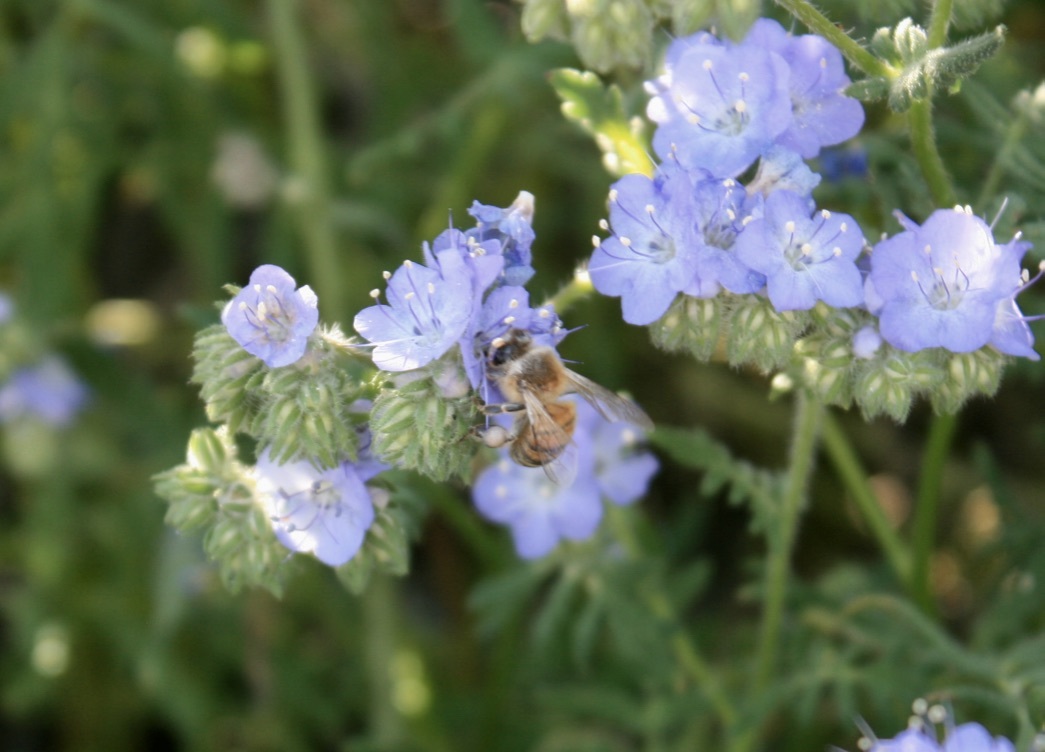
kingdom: Animalia
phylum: Arthropoda
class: Insecta
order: Hymenoptera
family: Apidae
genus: Apis
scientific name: Apis mellifera
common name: Honey bee
